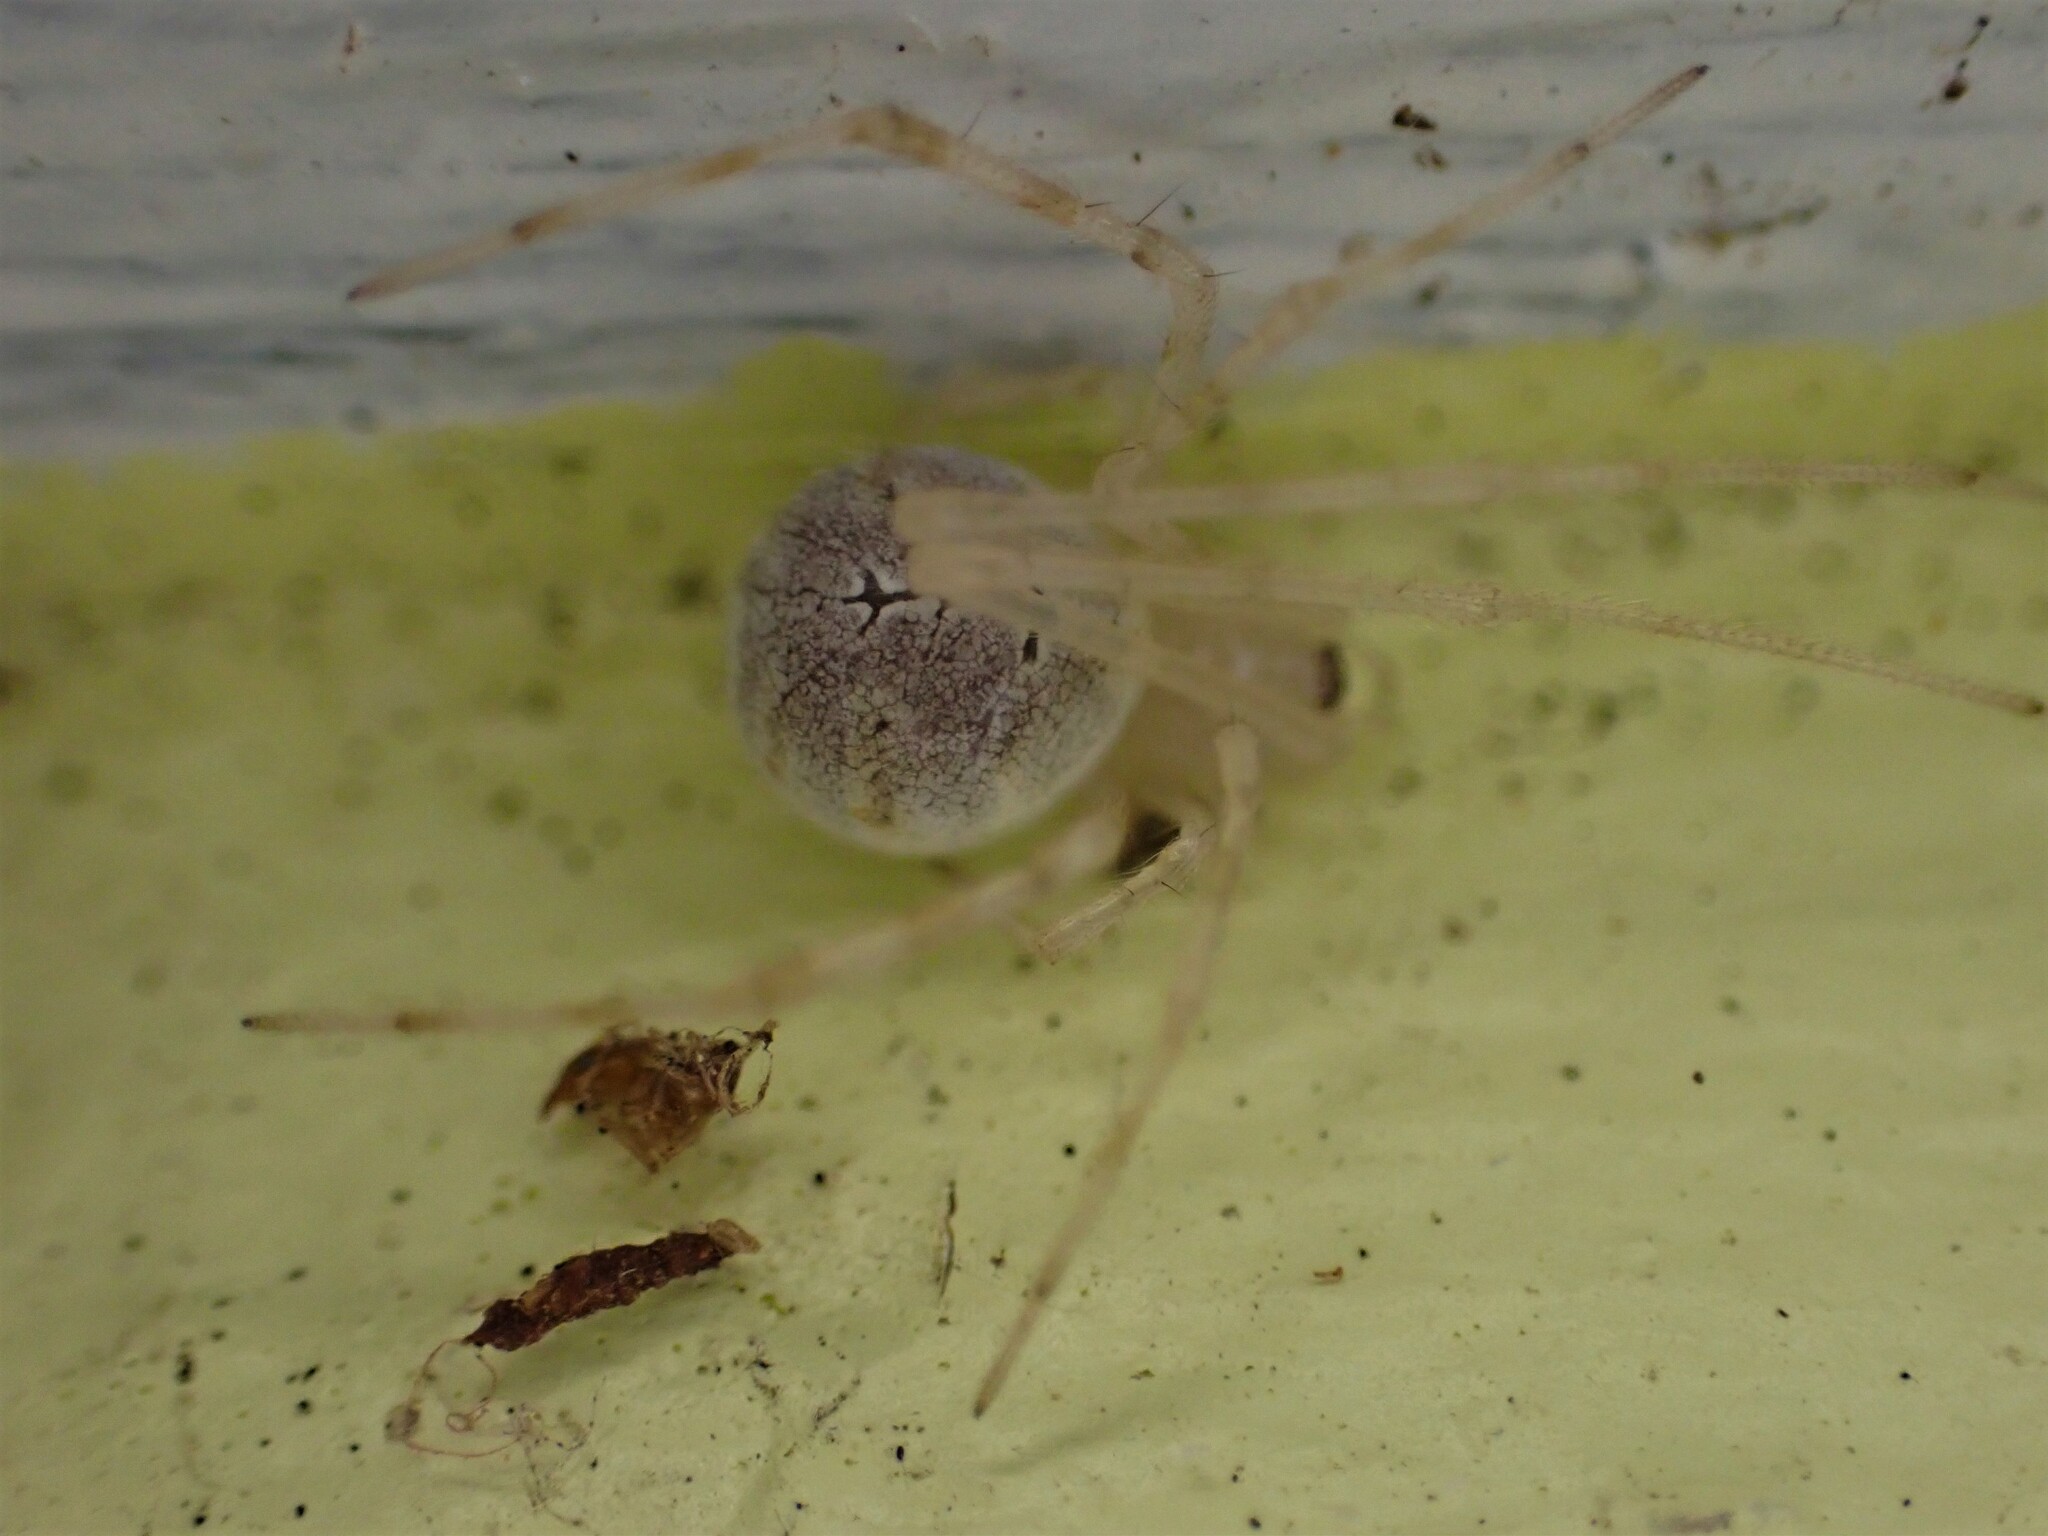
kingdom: Animalia
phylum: Arthropoda
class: Arachnida
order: Araneae
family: Theridiidae
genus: Cryptachaea
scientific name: Cryptachaea gigantipes
